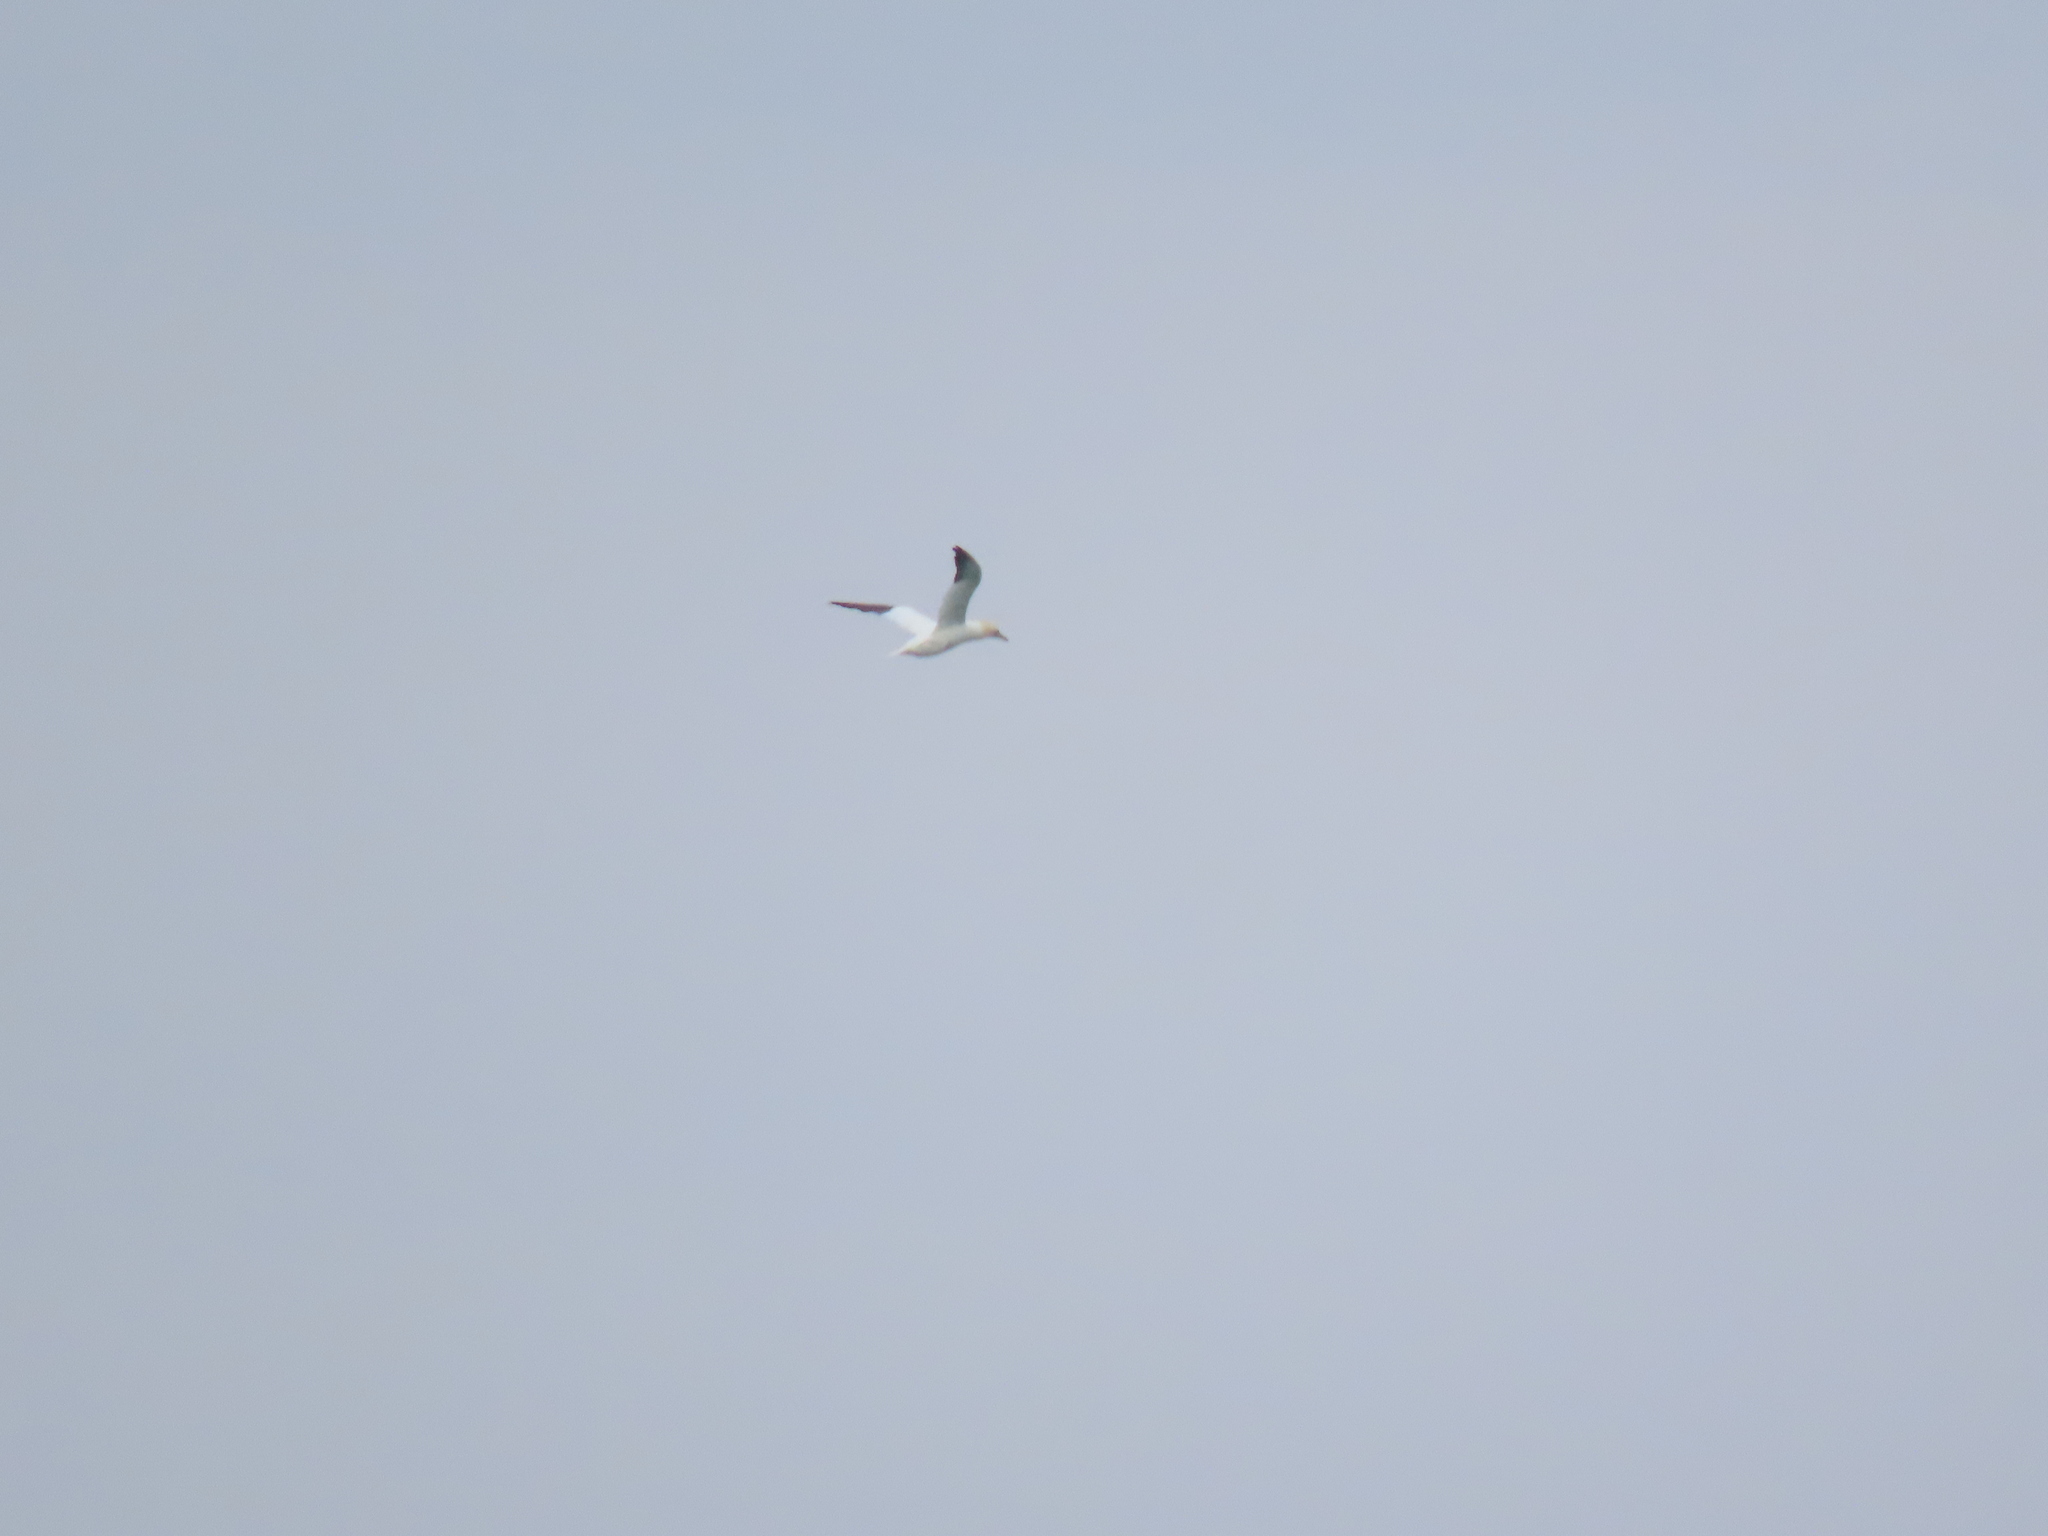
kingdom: Animalia
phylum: Chordata
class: Aves
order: Suliformes
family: Sulidae
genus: Morus
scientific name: Morus bassanus
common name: Northern gannet
